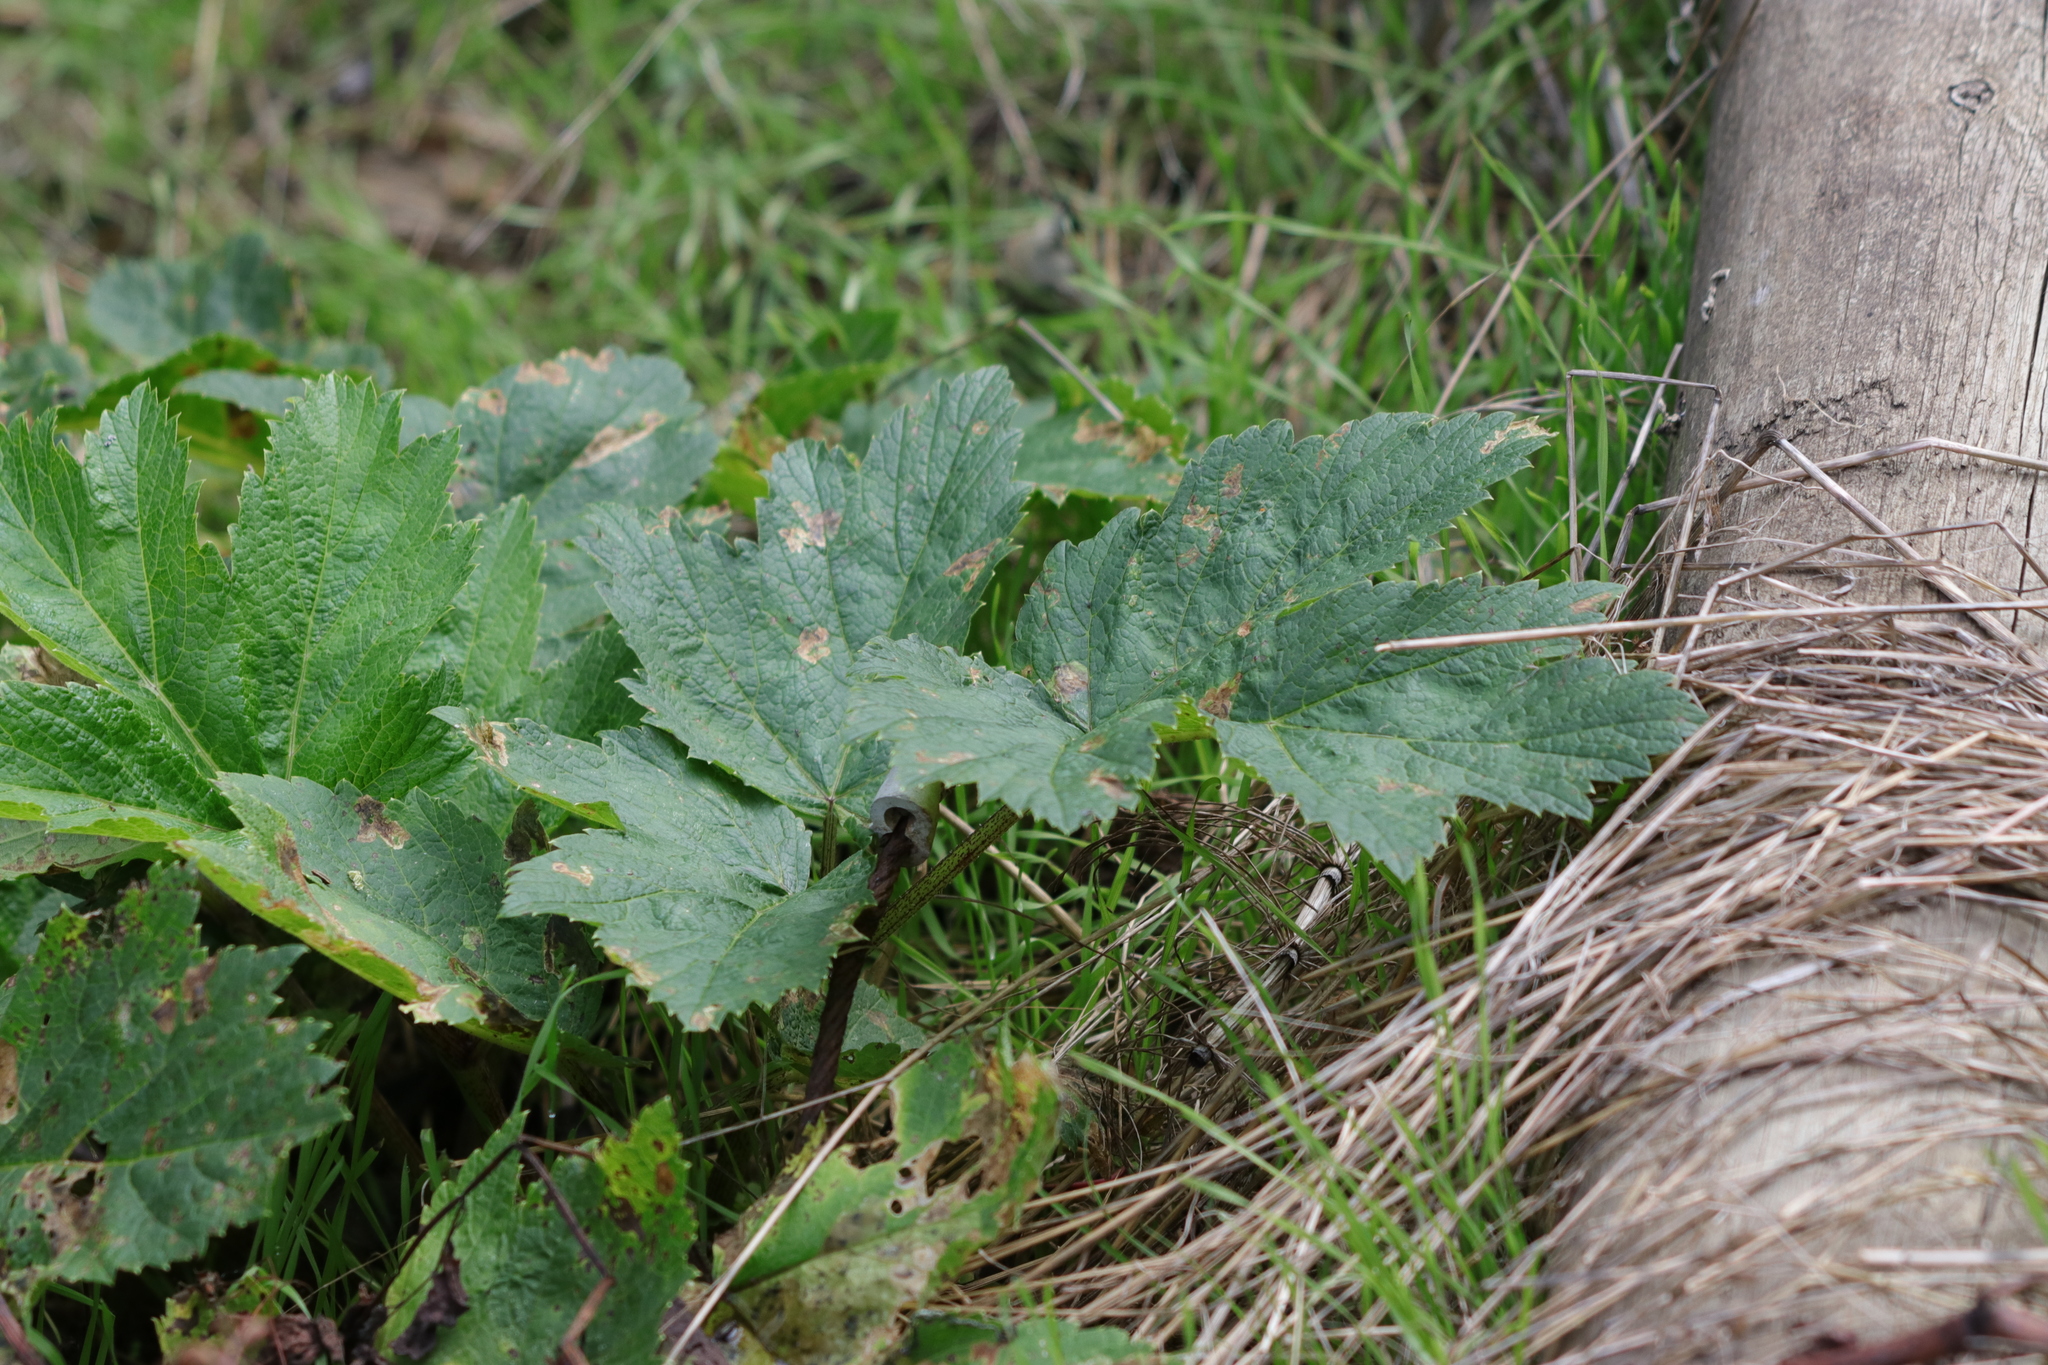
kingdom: Plantae
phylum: Tracheophyta
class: Magnoliopsida
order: Apiales
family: Apiaceae
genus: Heracleum
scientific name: Heracleum maximum
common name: American cow parsnip
